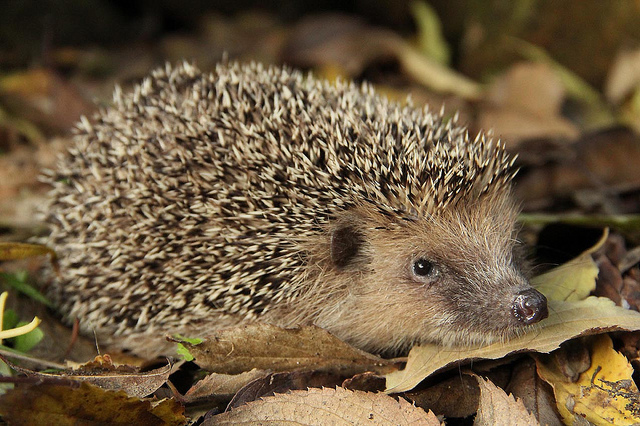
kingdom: Animalia
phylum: Chordata
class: Mammalia
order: Erinaceomorpha
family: Erinaceidae
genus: Erinaceus
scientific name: Erinaceus europaeus
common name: West european hedgehog
